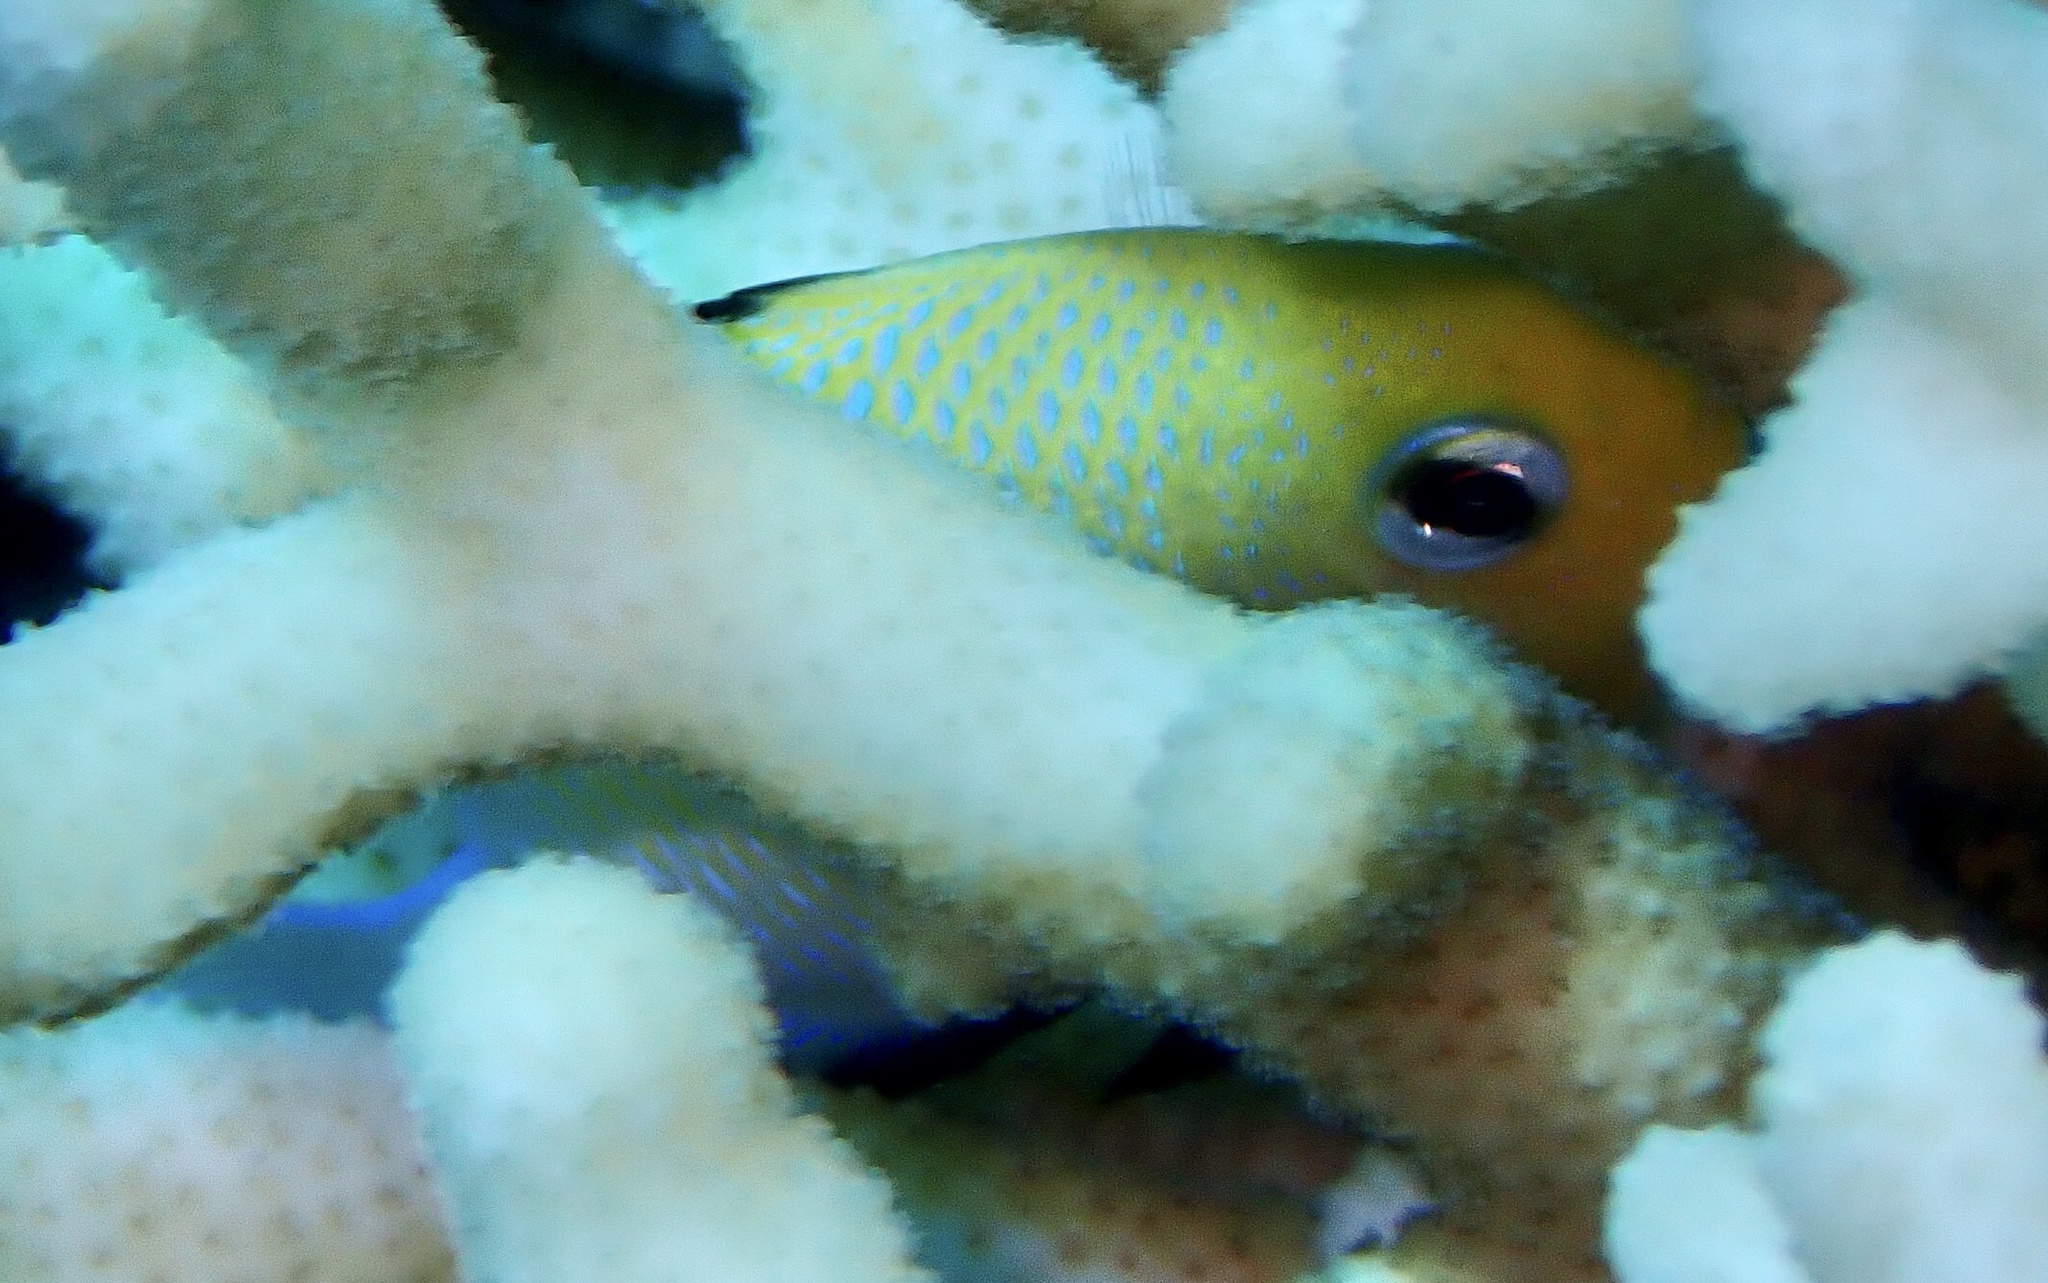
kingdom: Animalia
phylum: Chordata
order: Perciformes
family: Pomacentridae
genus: Dascyllus
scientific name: Dascyllus marginatus
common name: Red sea dascyllus
